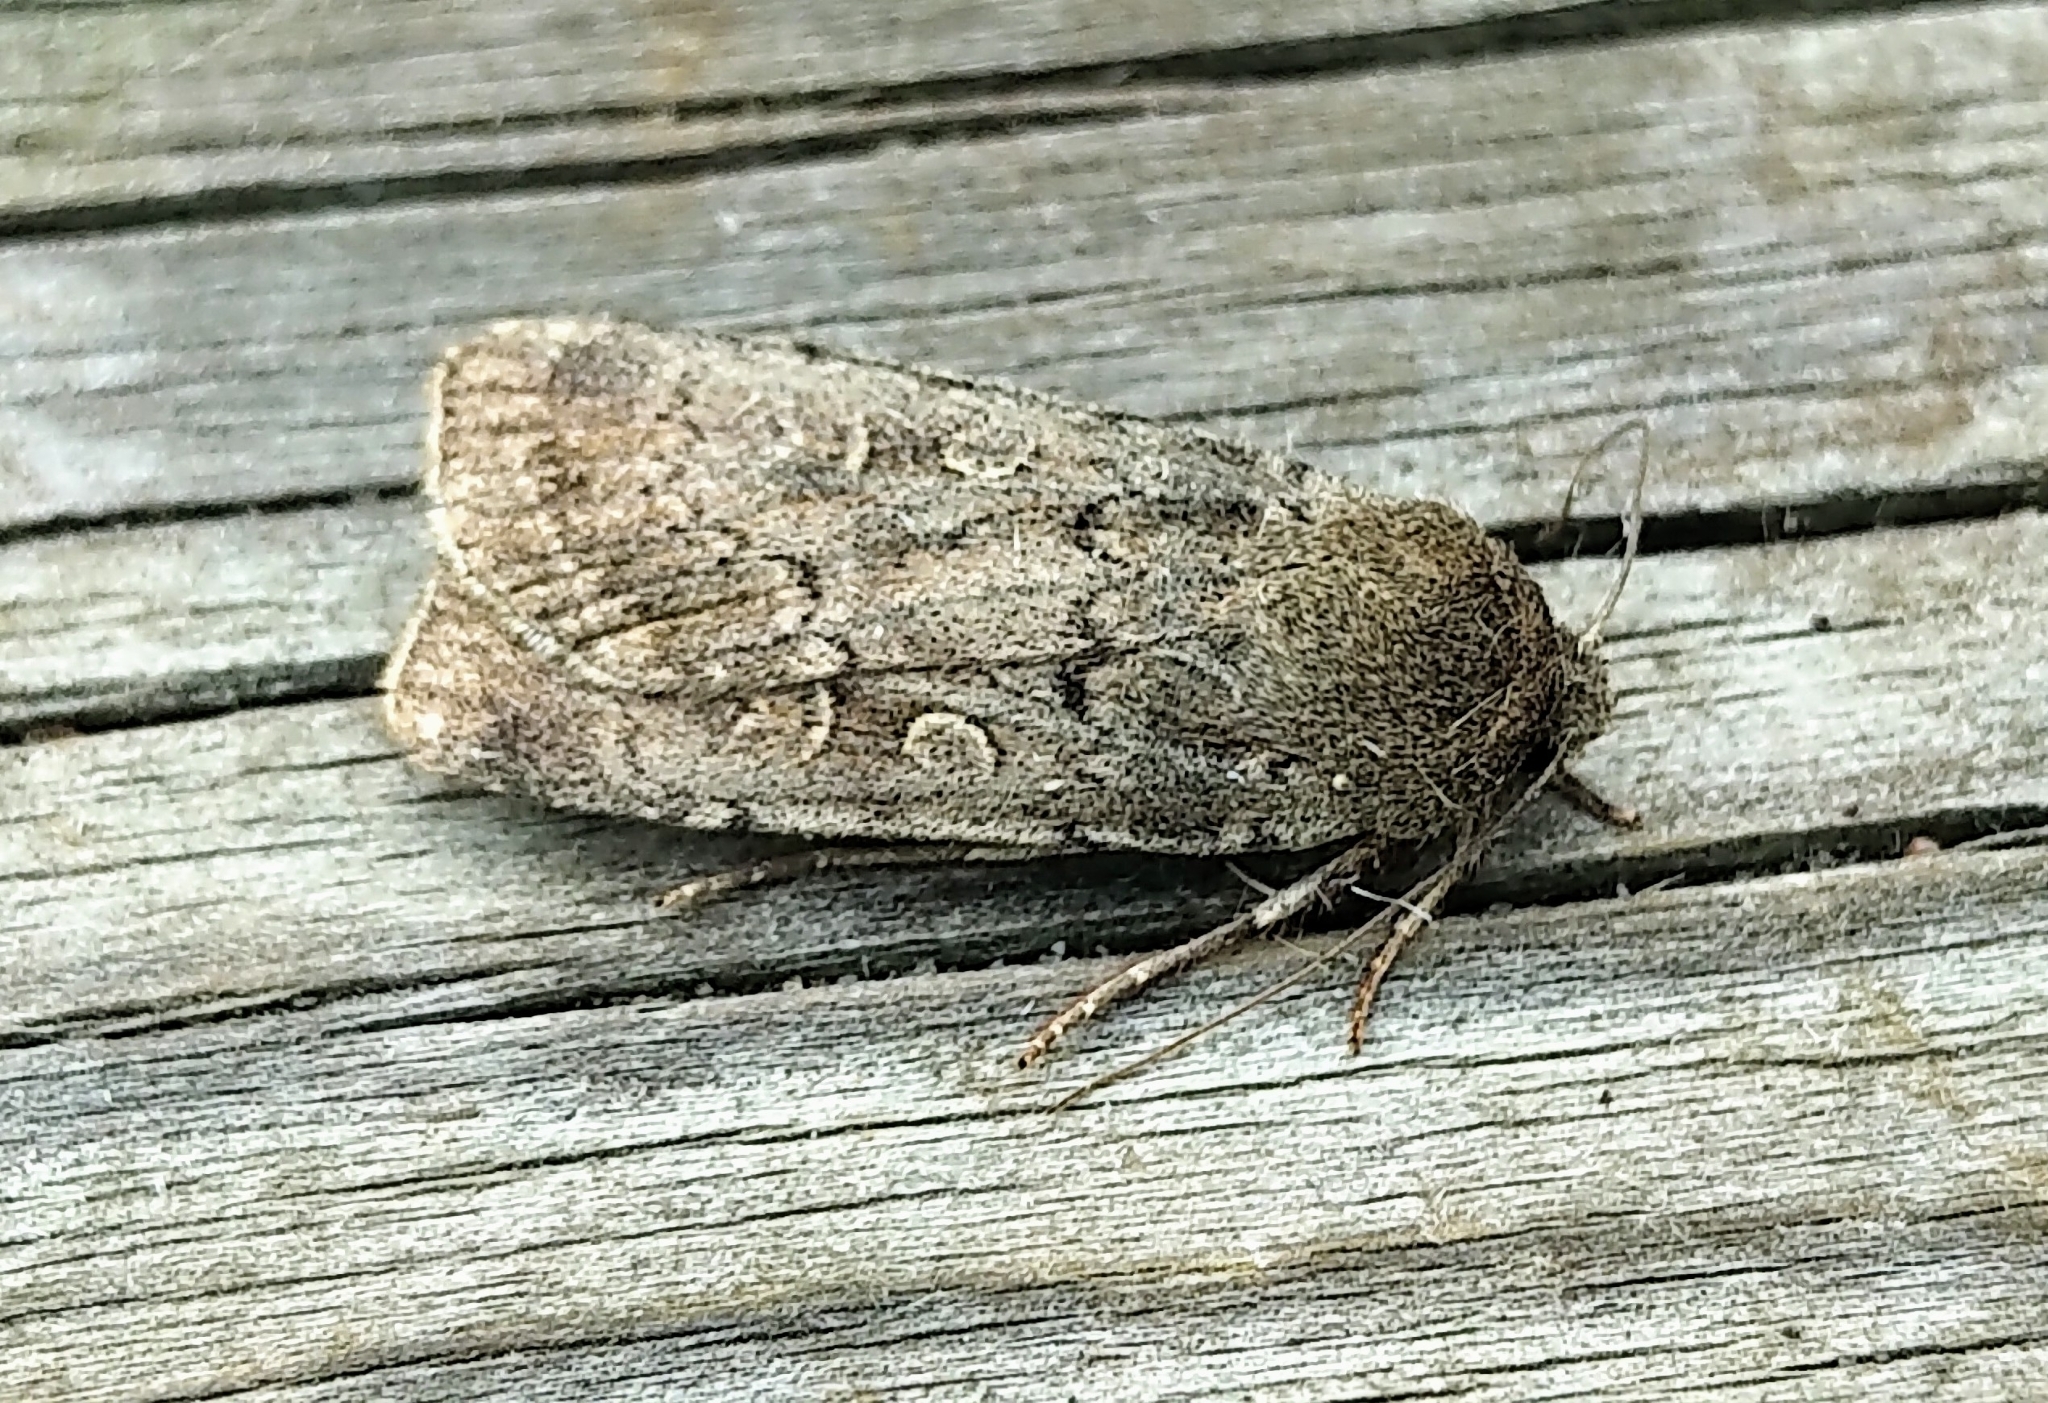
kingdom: Animalia
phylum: Arthropoda
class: Insecta
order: Lepidoptera
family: Noctuidae
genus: Euxoa
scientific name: Euxoa comosa
